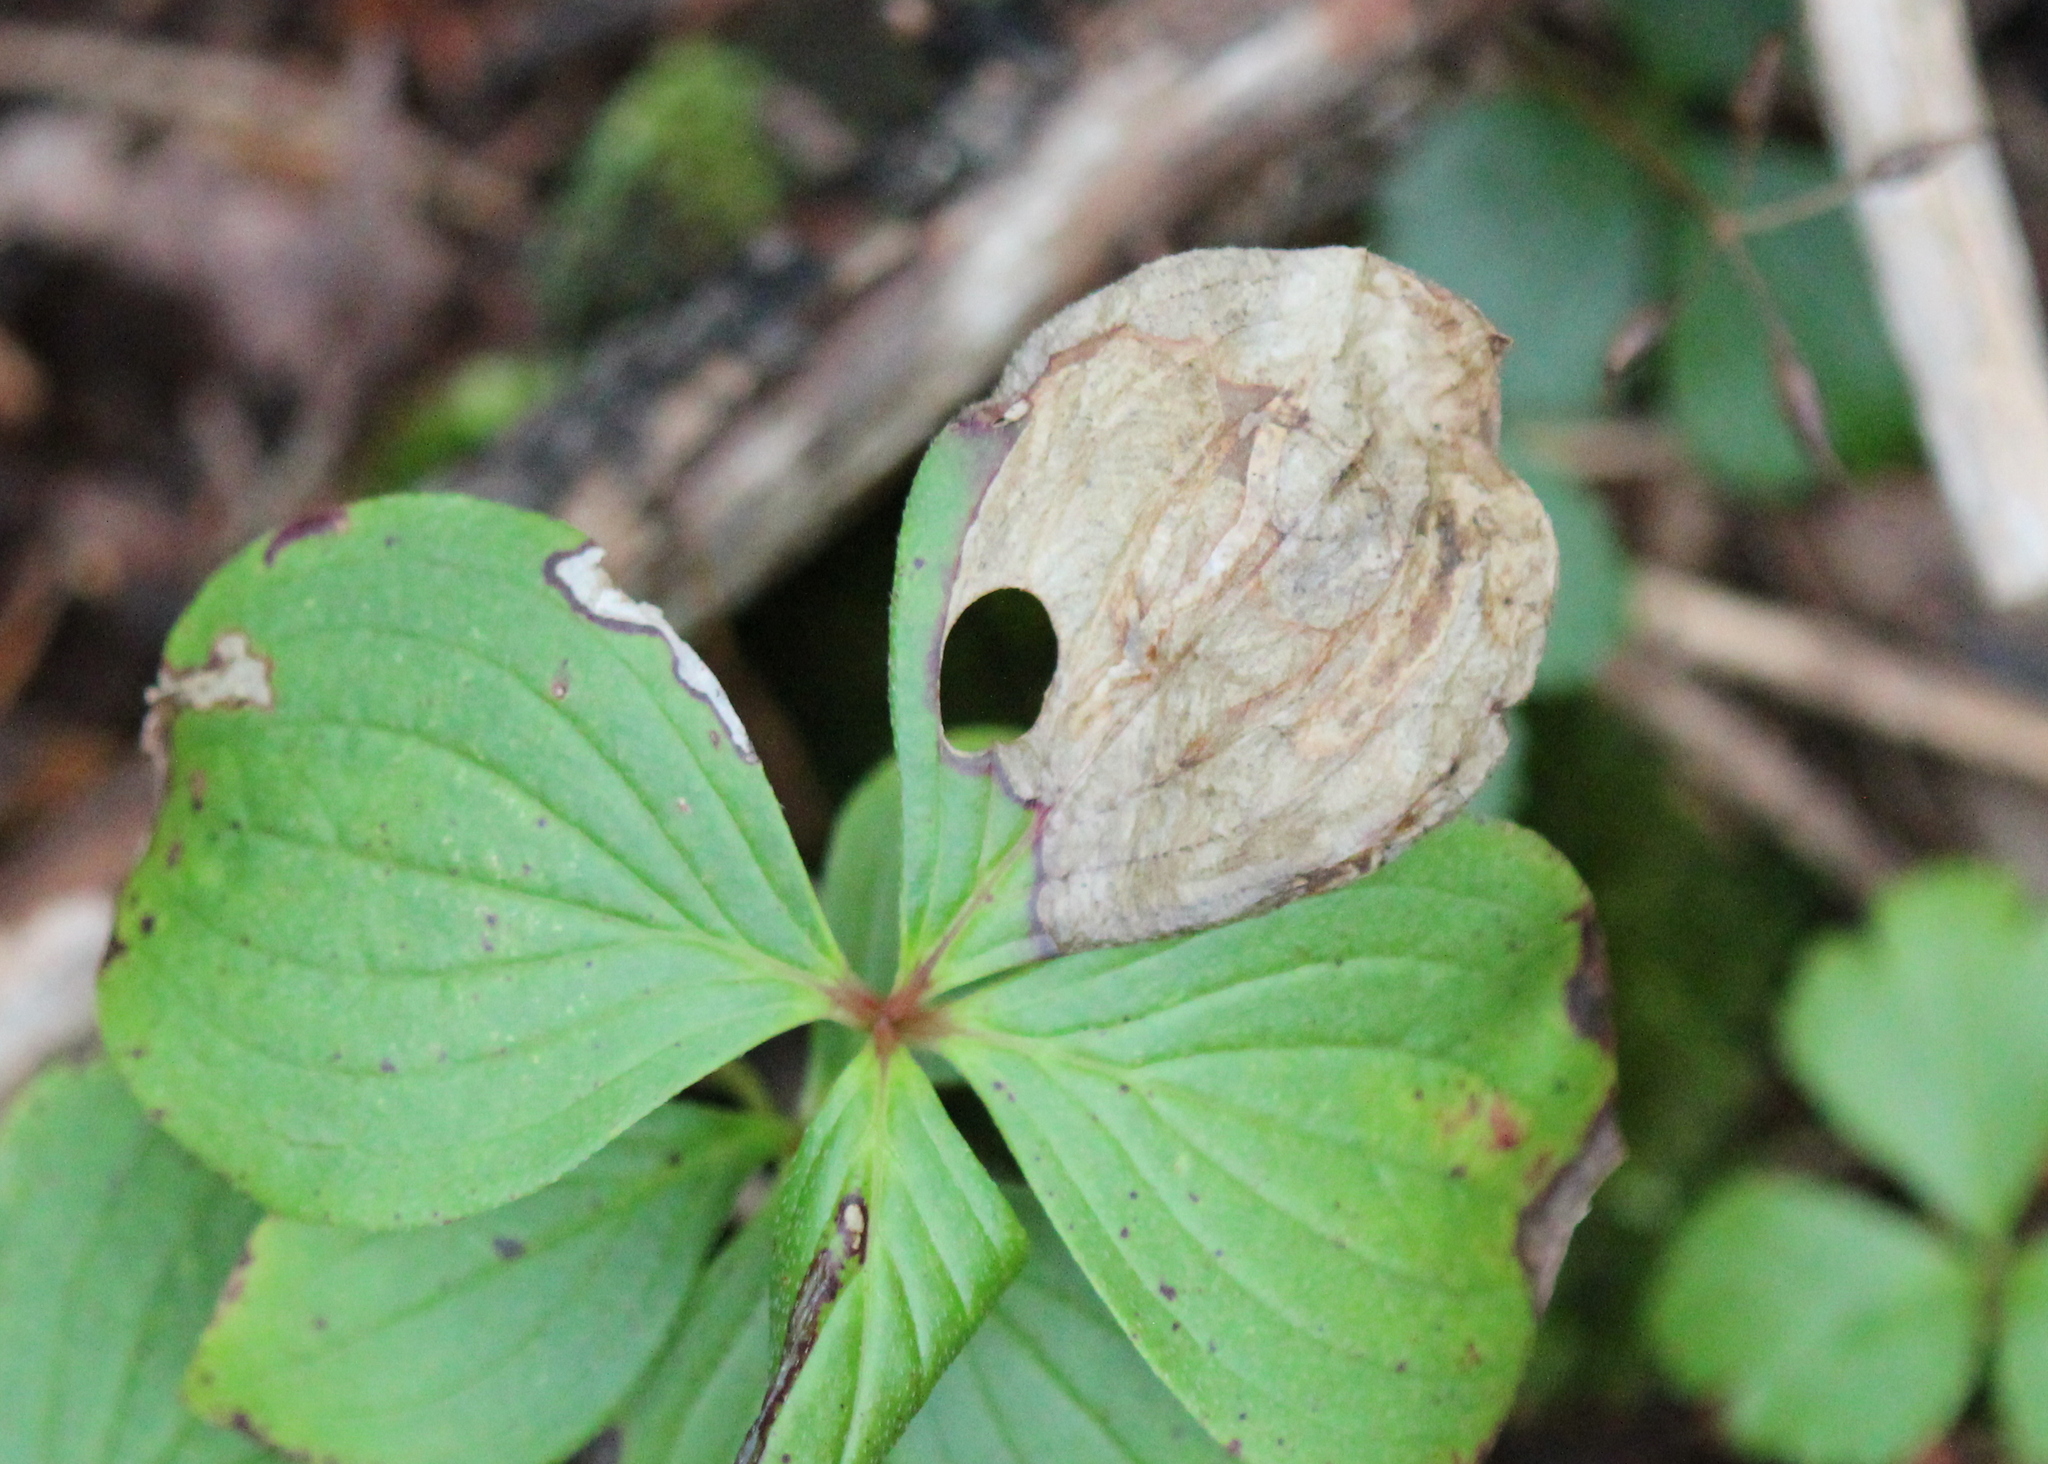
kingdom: Animalia
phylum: Arthropoda
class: Insecta
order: Lepidoptera
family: Heliozelidae
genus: Antispila
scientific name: Antispila freemani
